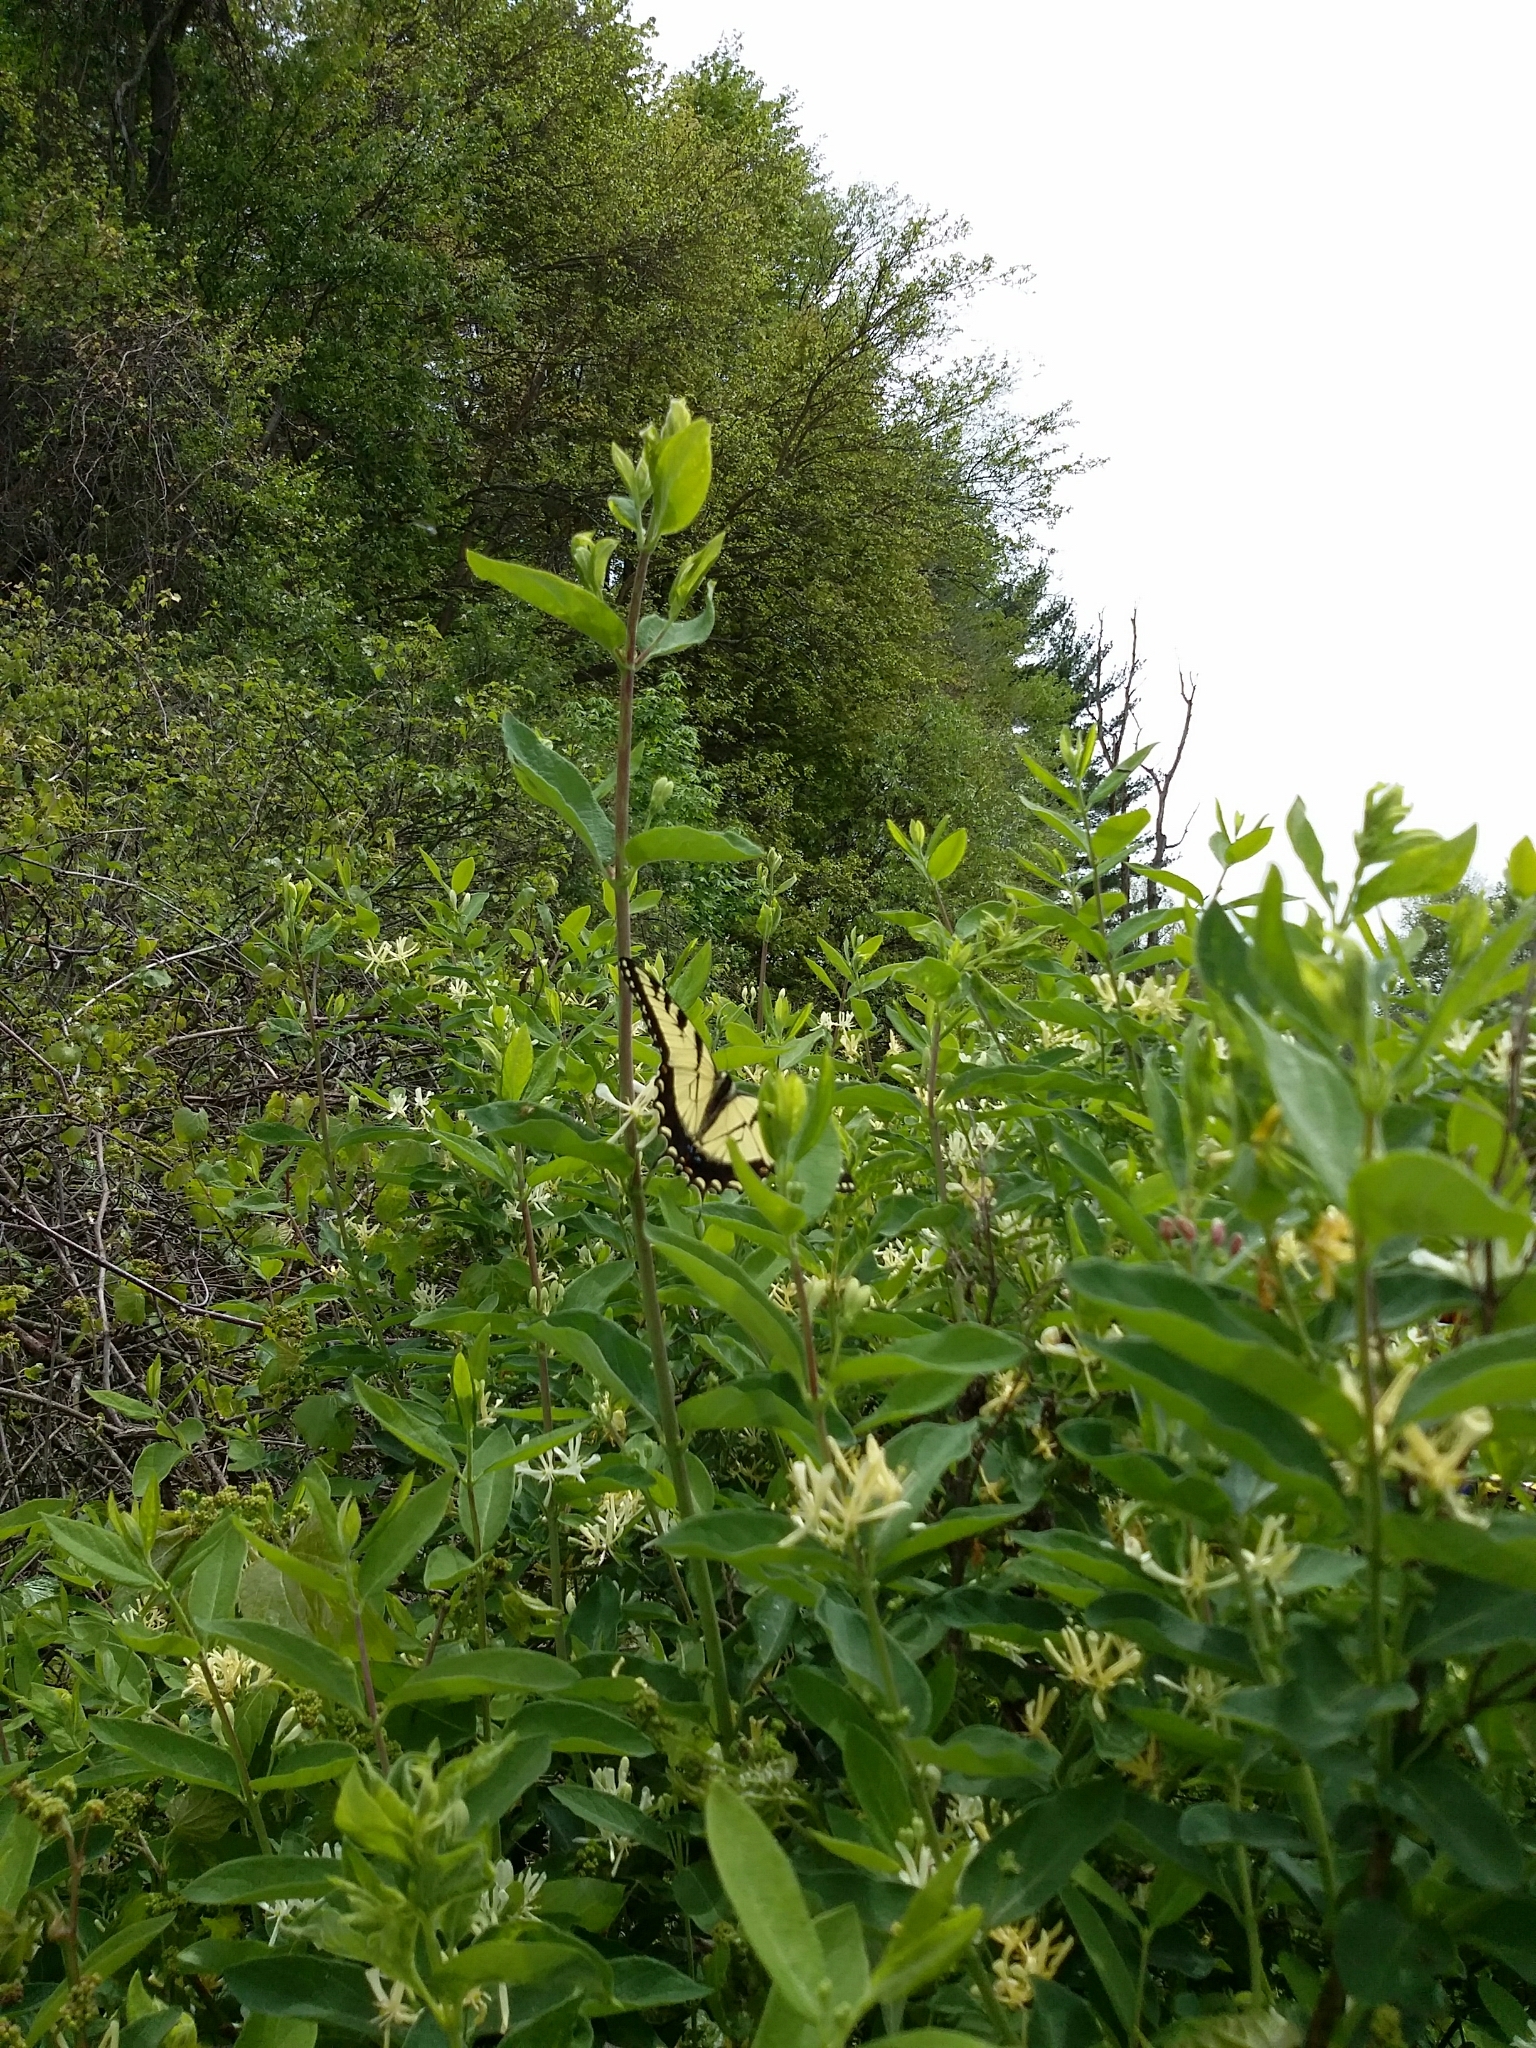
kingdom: Animalia
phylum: Arthropoda
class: Insecta
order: Lepidoptera
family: Papilionidae
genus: Papilio
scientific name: Papilio glaucus
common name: Tiger swallowtail
